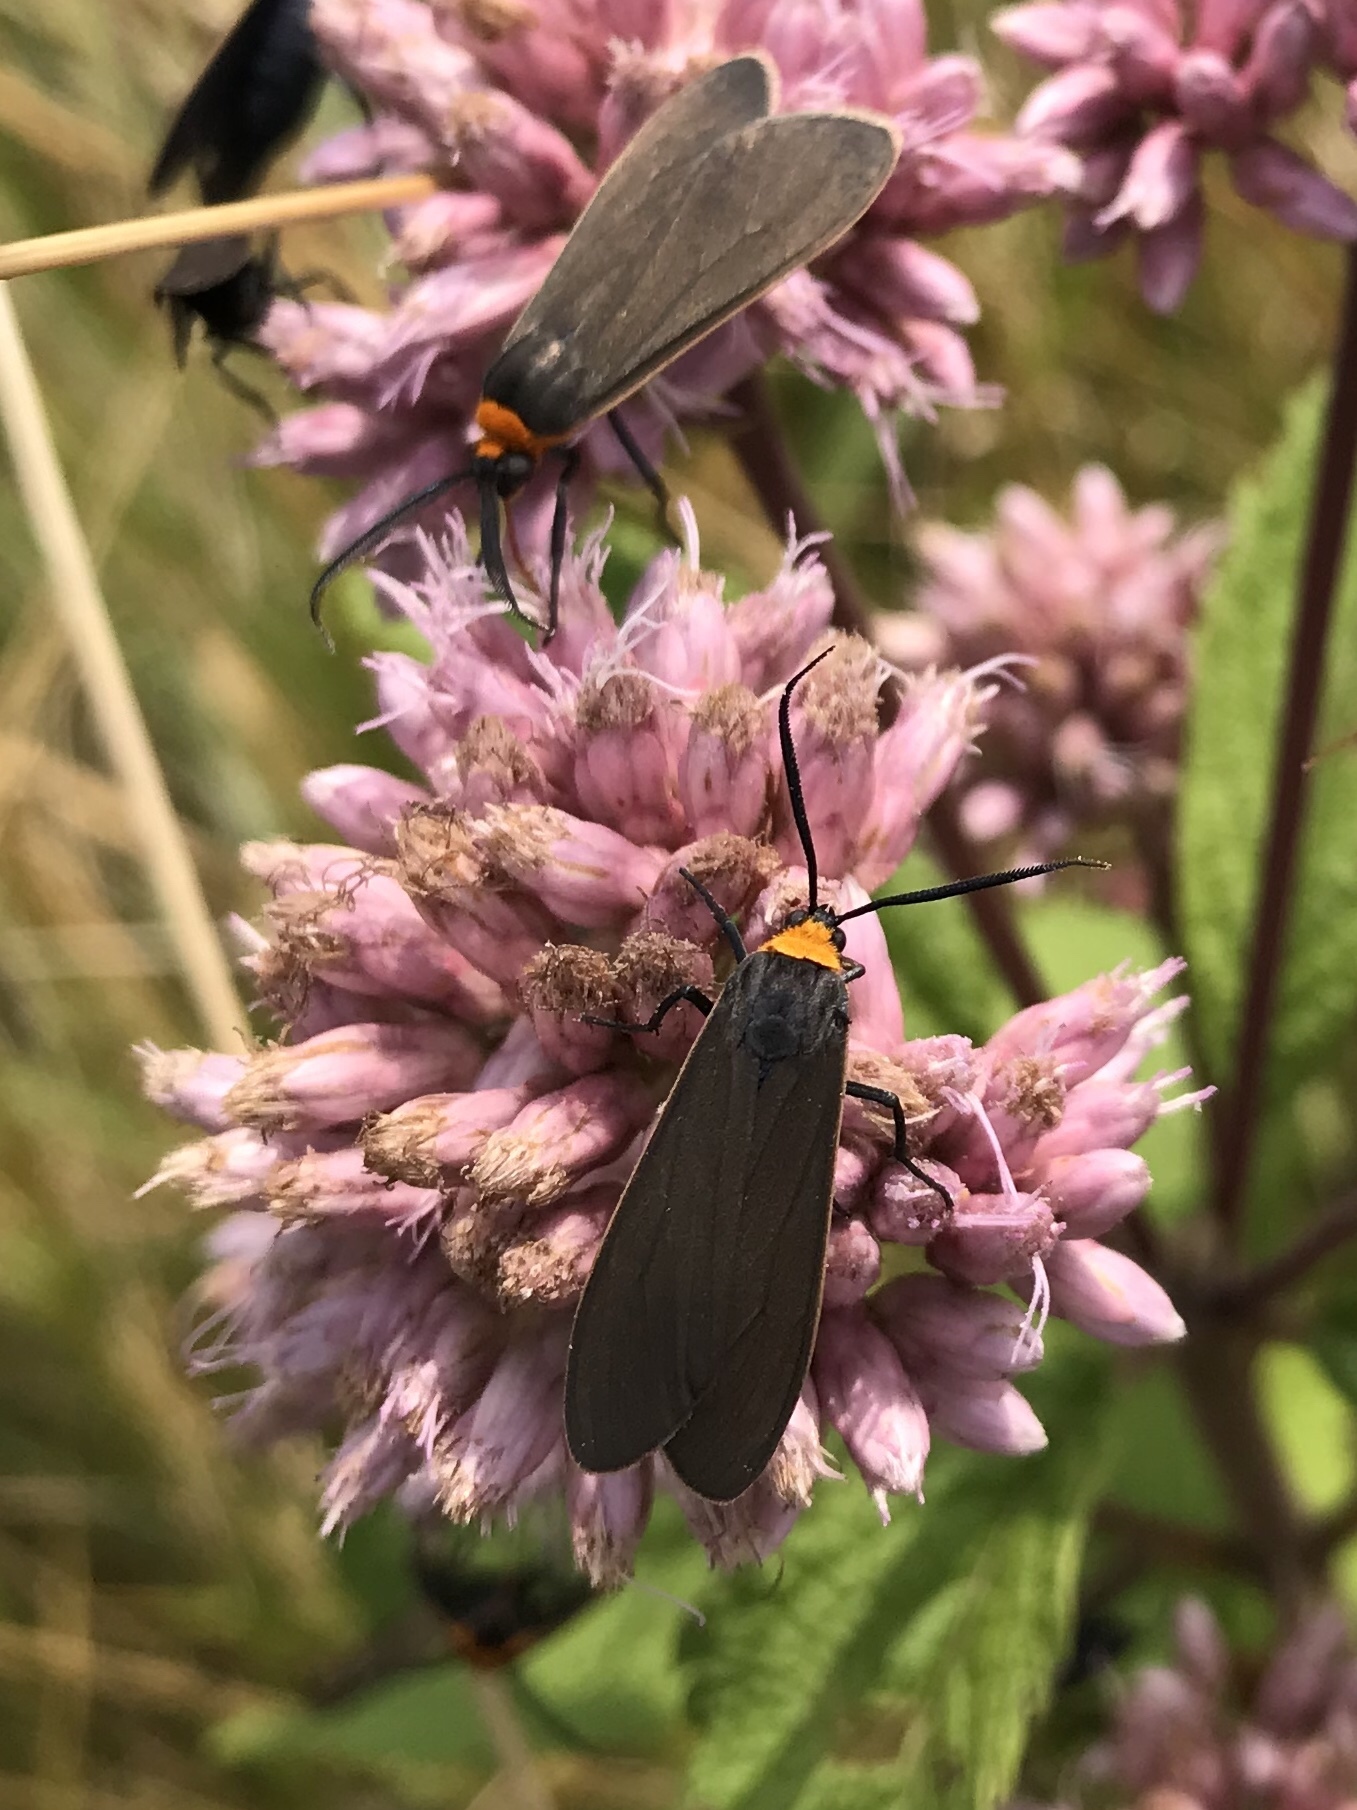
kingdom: Animalia
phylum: Arthropoda
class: Insecta
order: Lepidoptera
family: Erebidae
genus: Cisseps
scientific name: Cisseps fulvicollis
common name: Yellow-collared scape moth
